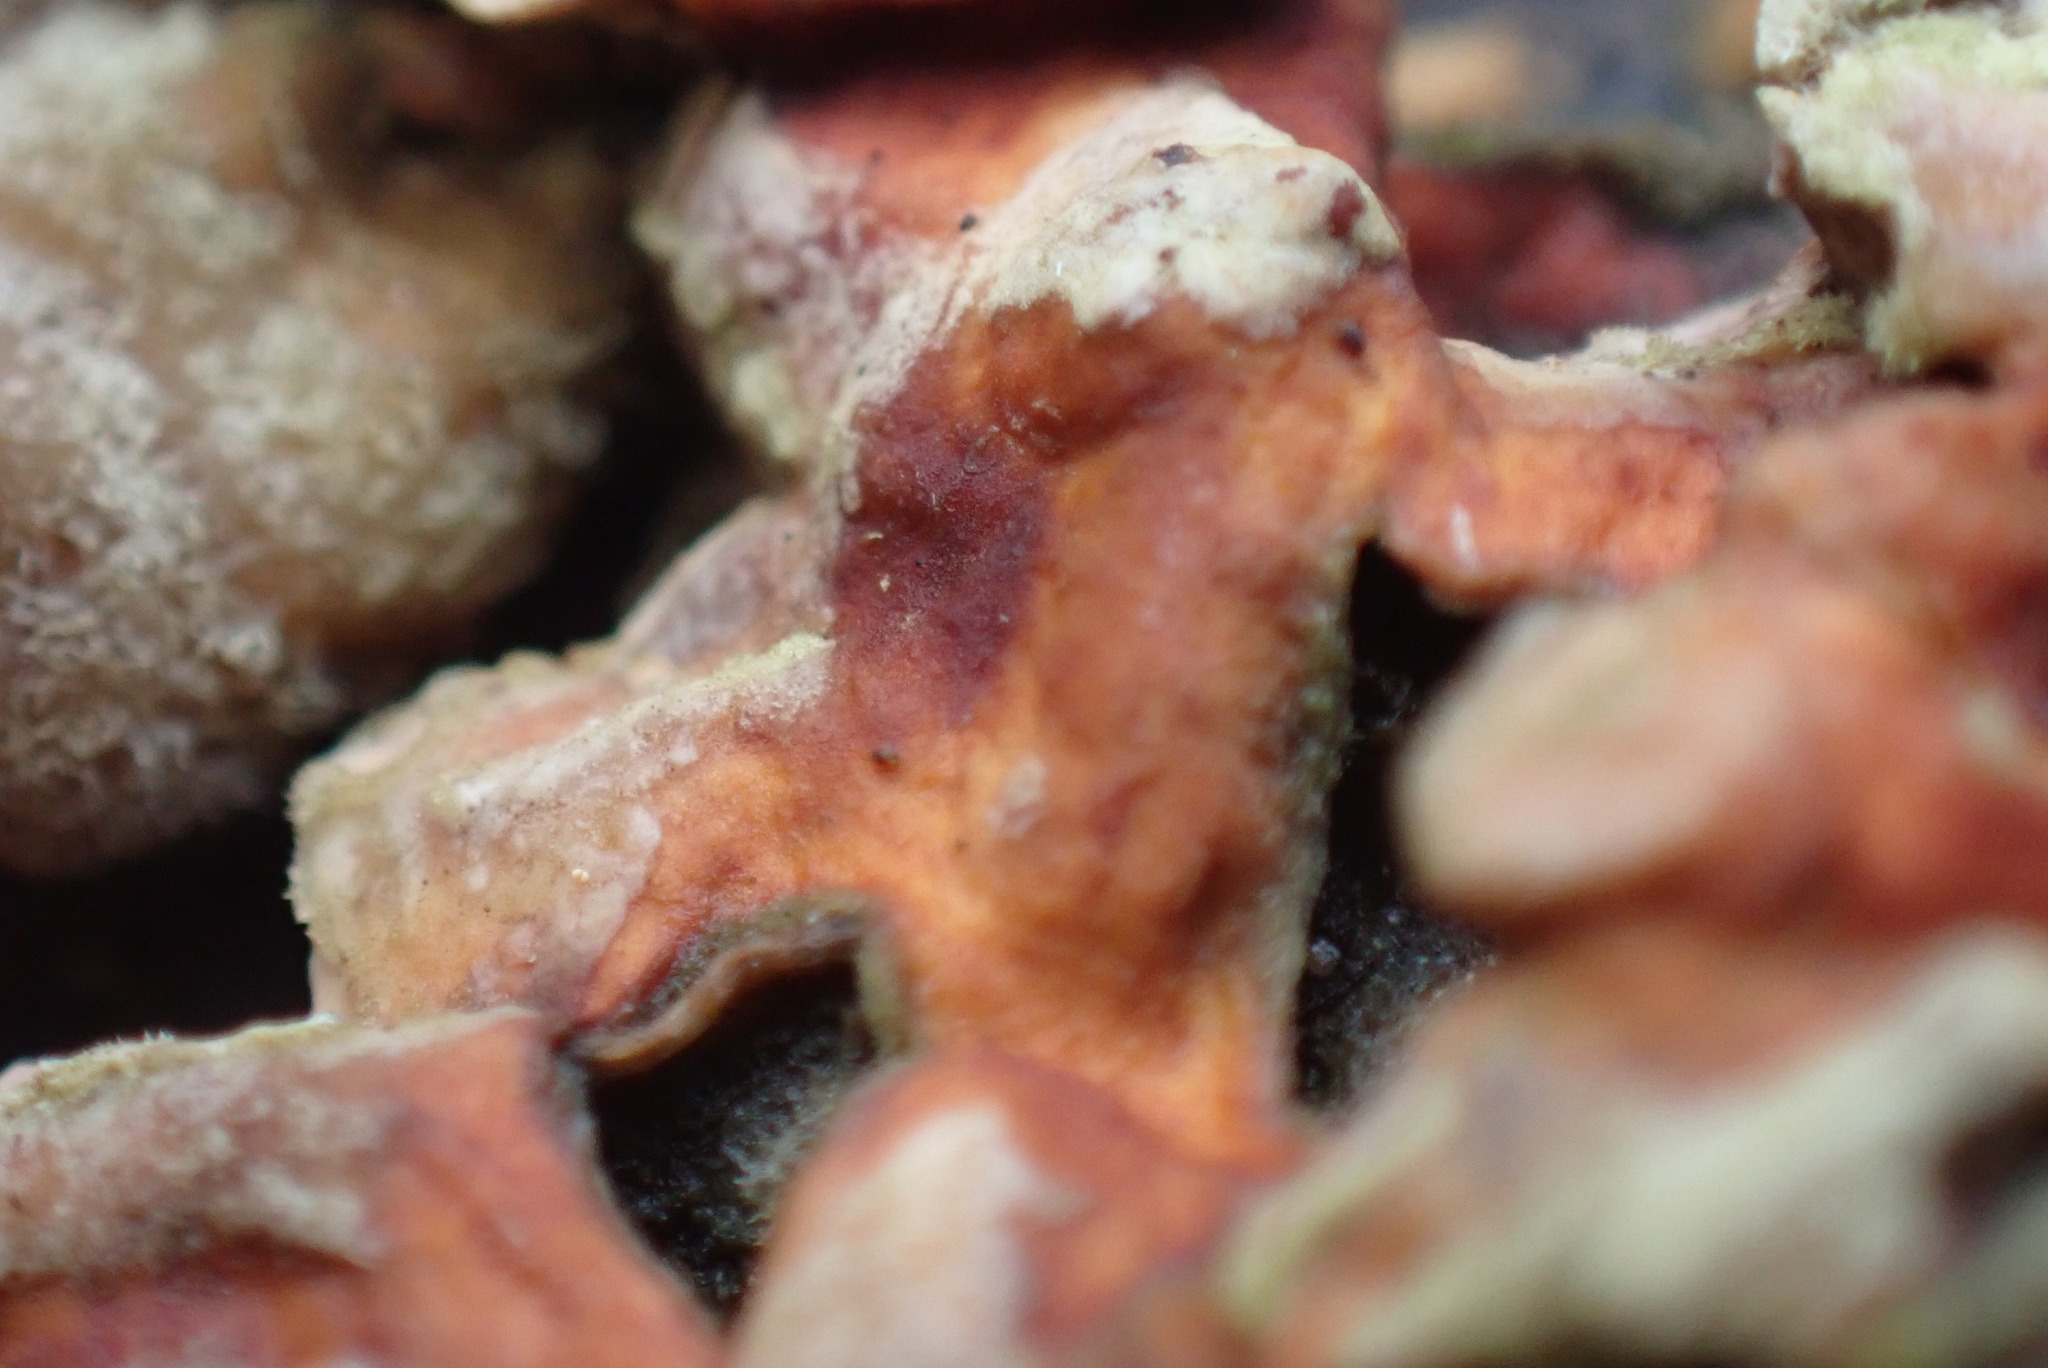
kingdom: Fungi
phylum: Basidiomycota
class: Agaricomycetes
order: Russulales
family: Stereaceae
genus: Stereum
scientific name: Stereum hirsutum
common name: Hairy curtain crust
